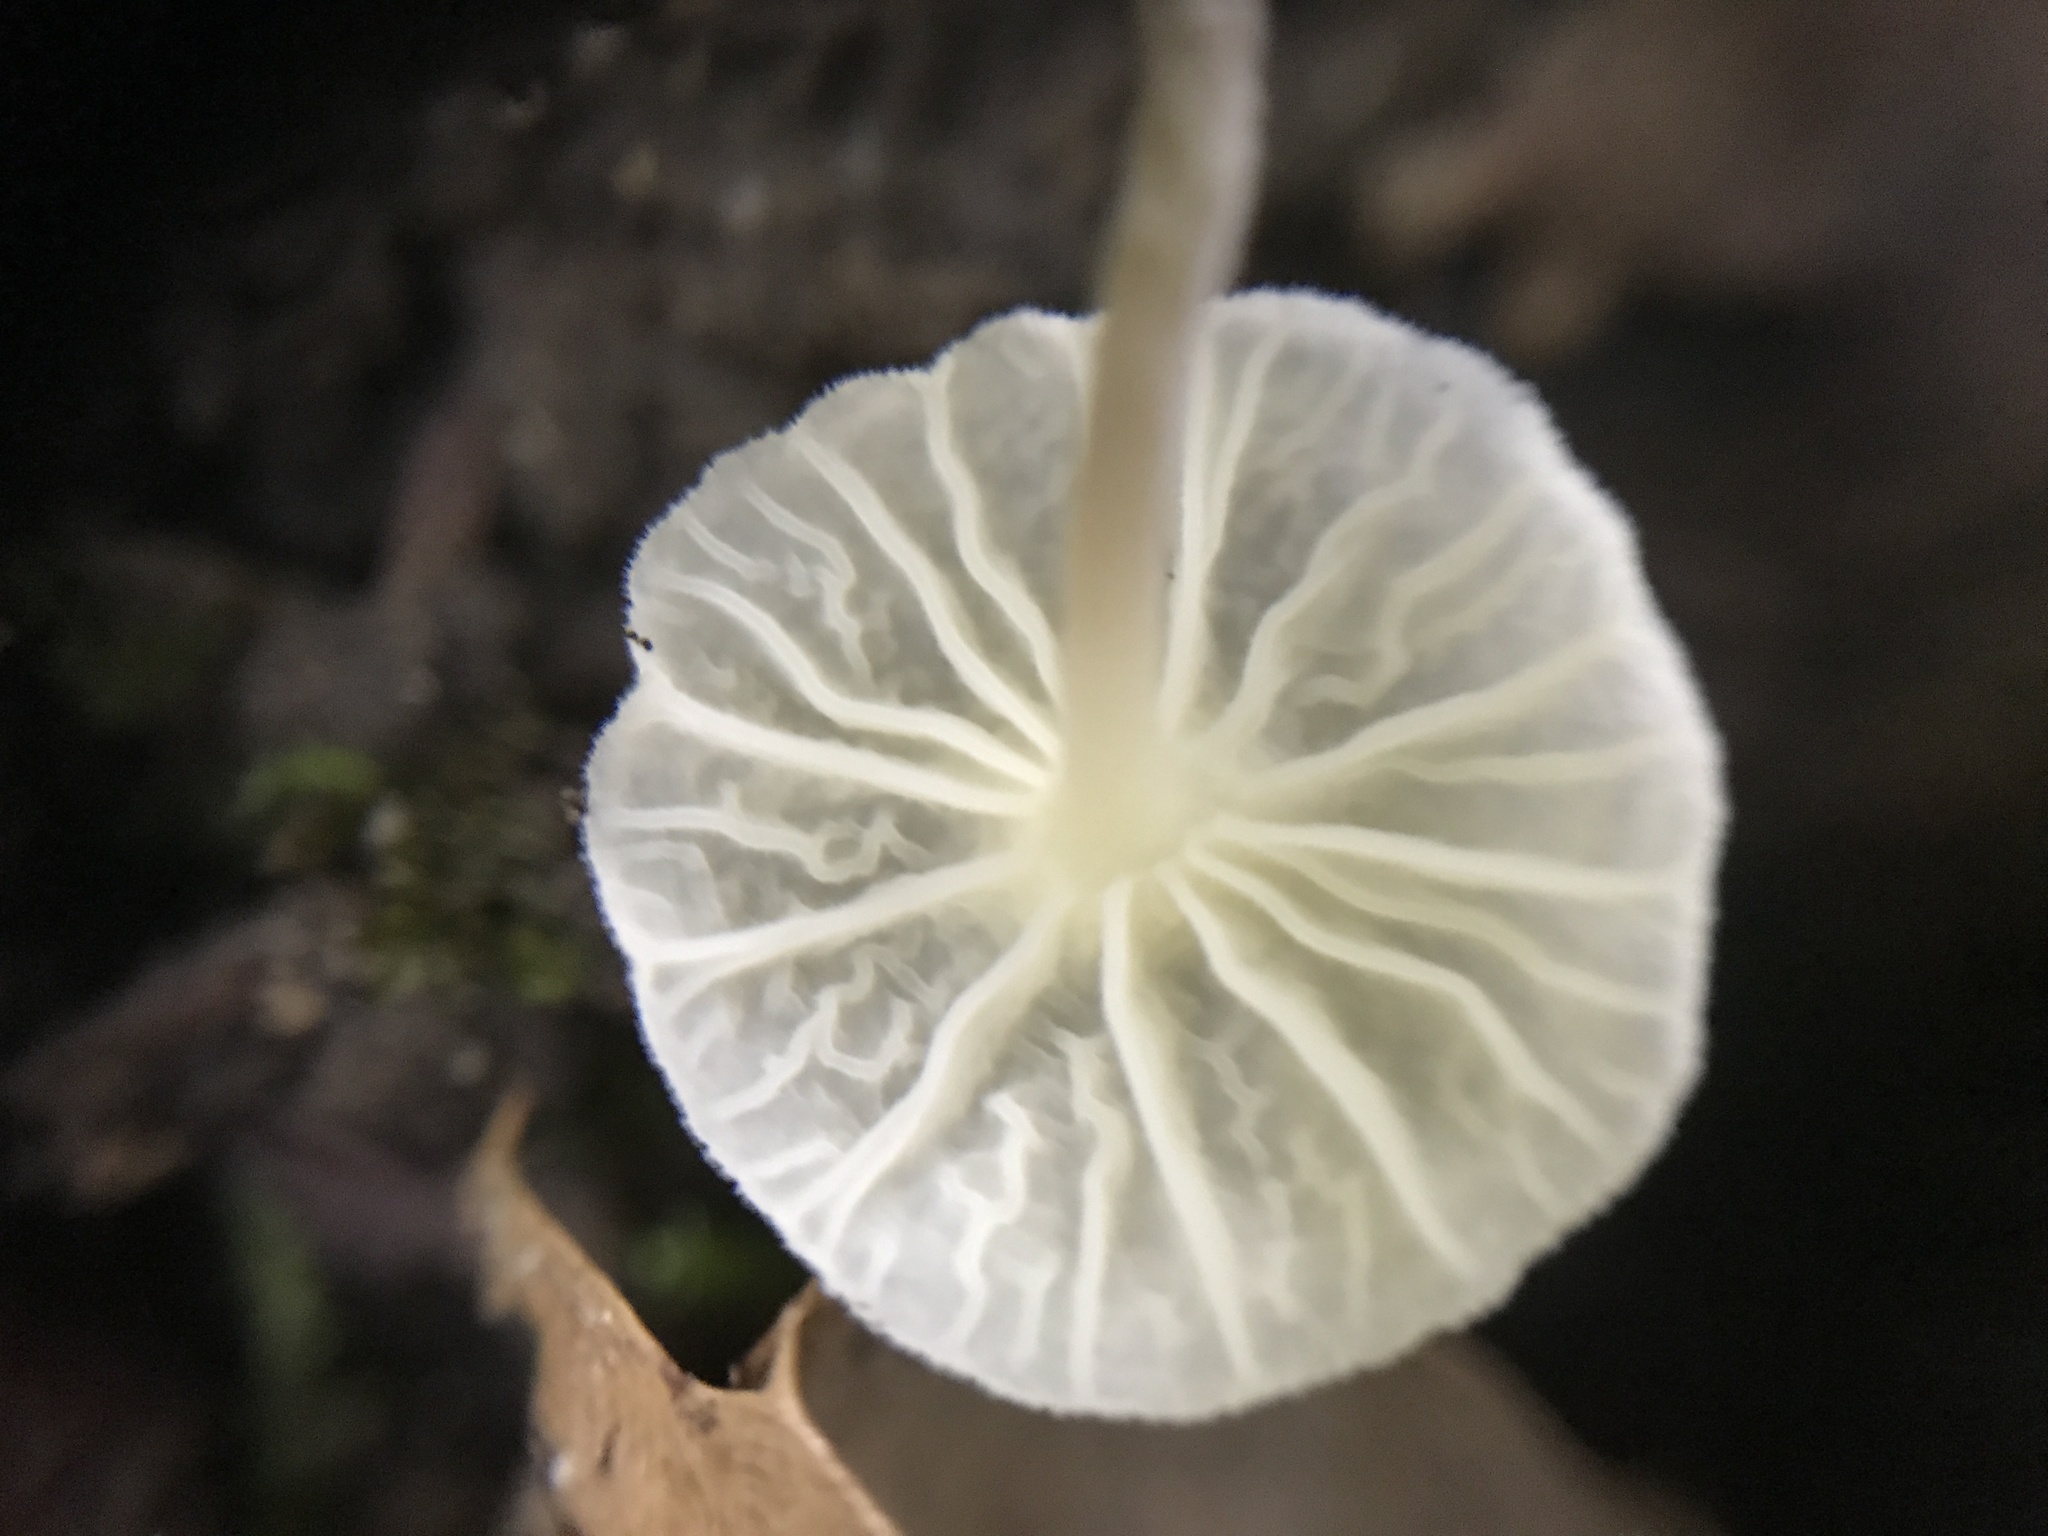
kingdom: Fungi
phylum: Basidiomycota
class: Agaricomycetes
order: Agaricales
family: Omphalotaceae
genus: Marasmiellus
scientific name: Marasmiellus candidus
